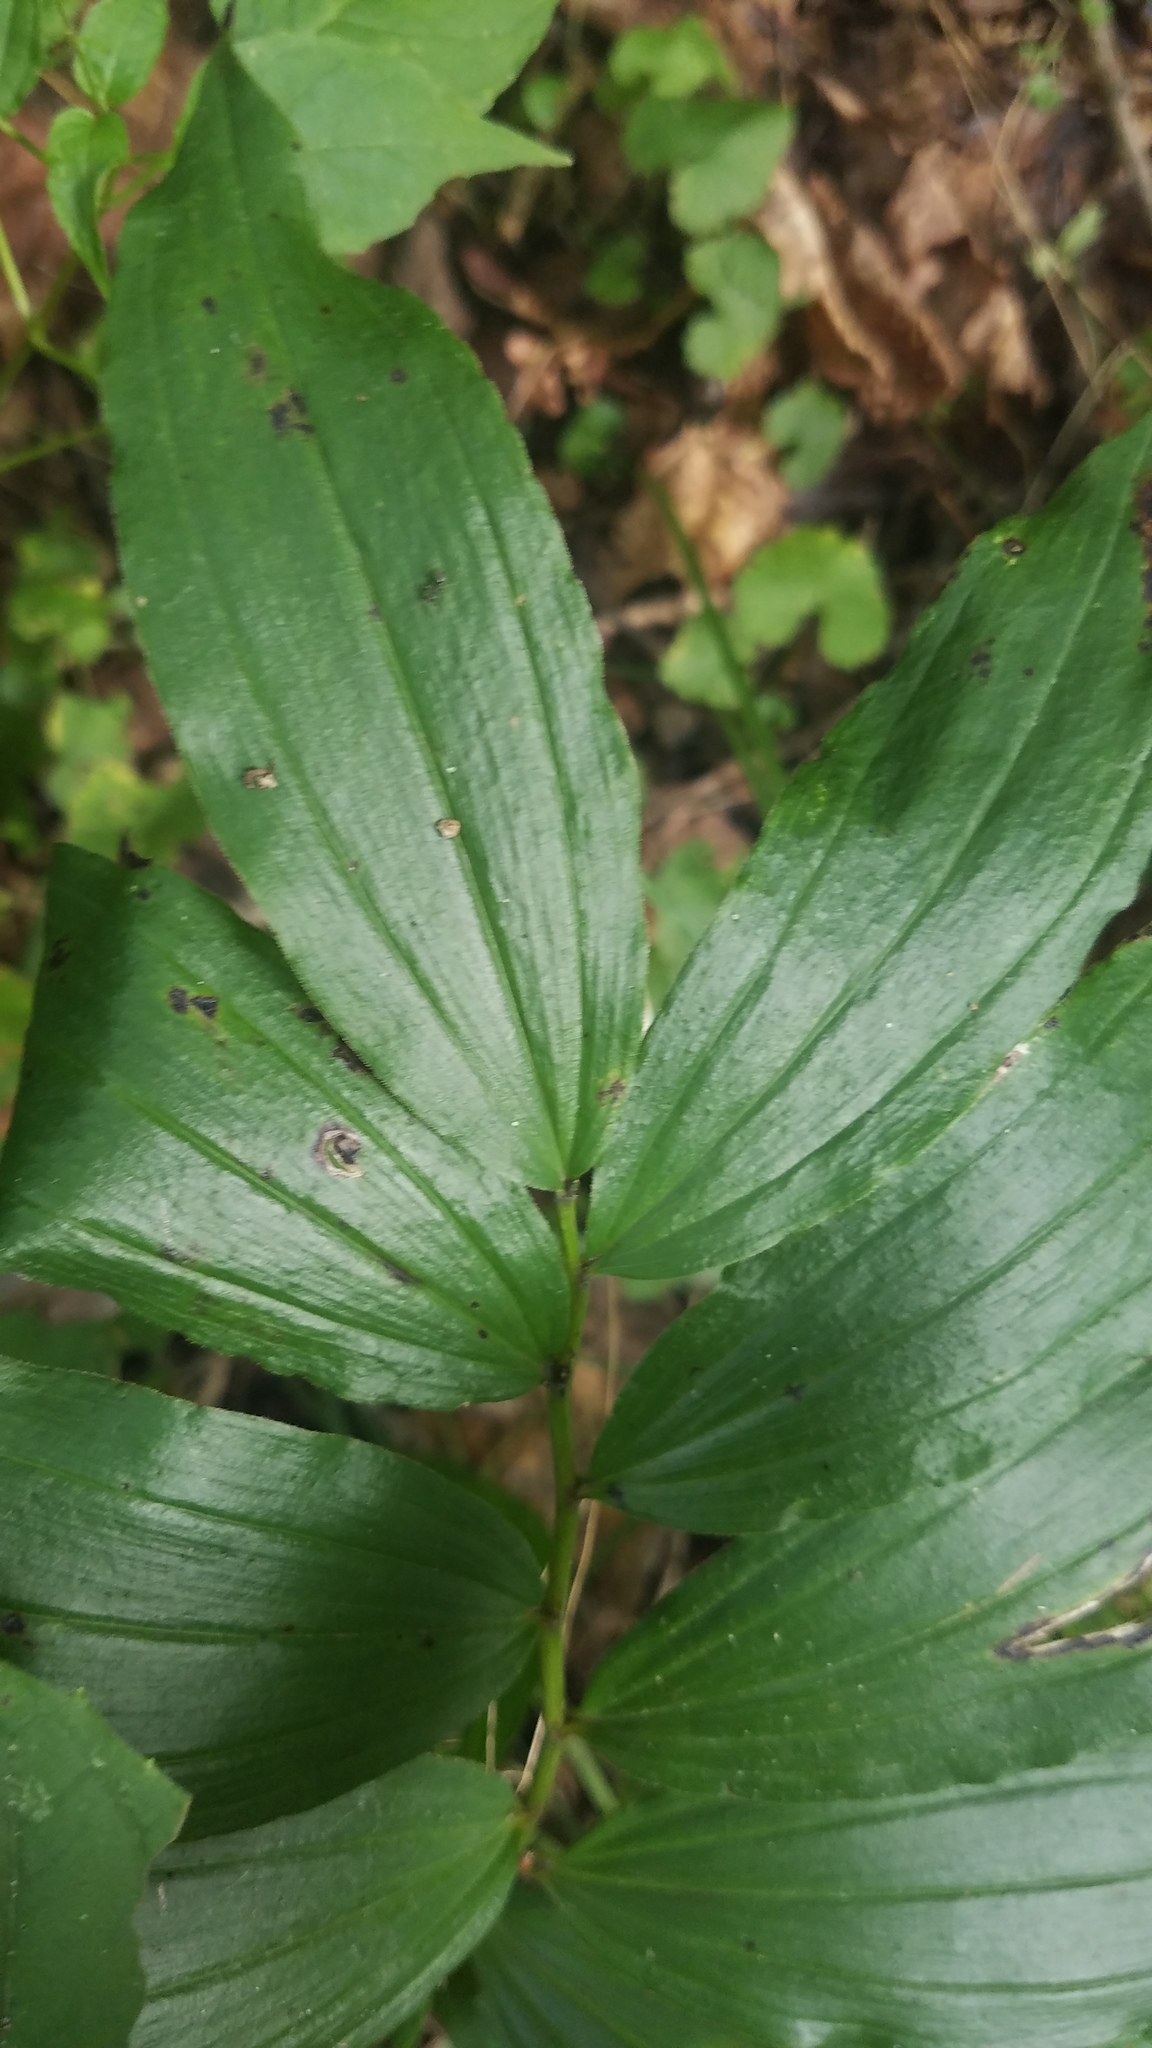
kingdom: Plantae
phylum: Tracheophyta
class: Liliopsida
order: Asparagales
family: Asparagaceae
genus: Maianthemum
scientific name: Maianthemum racemosum
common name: False spikenard
